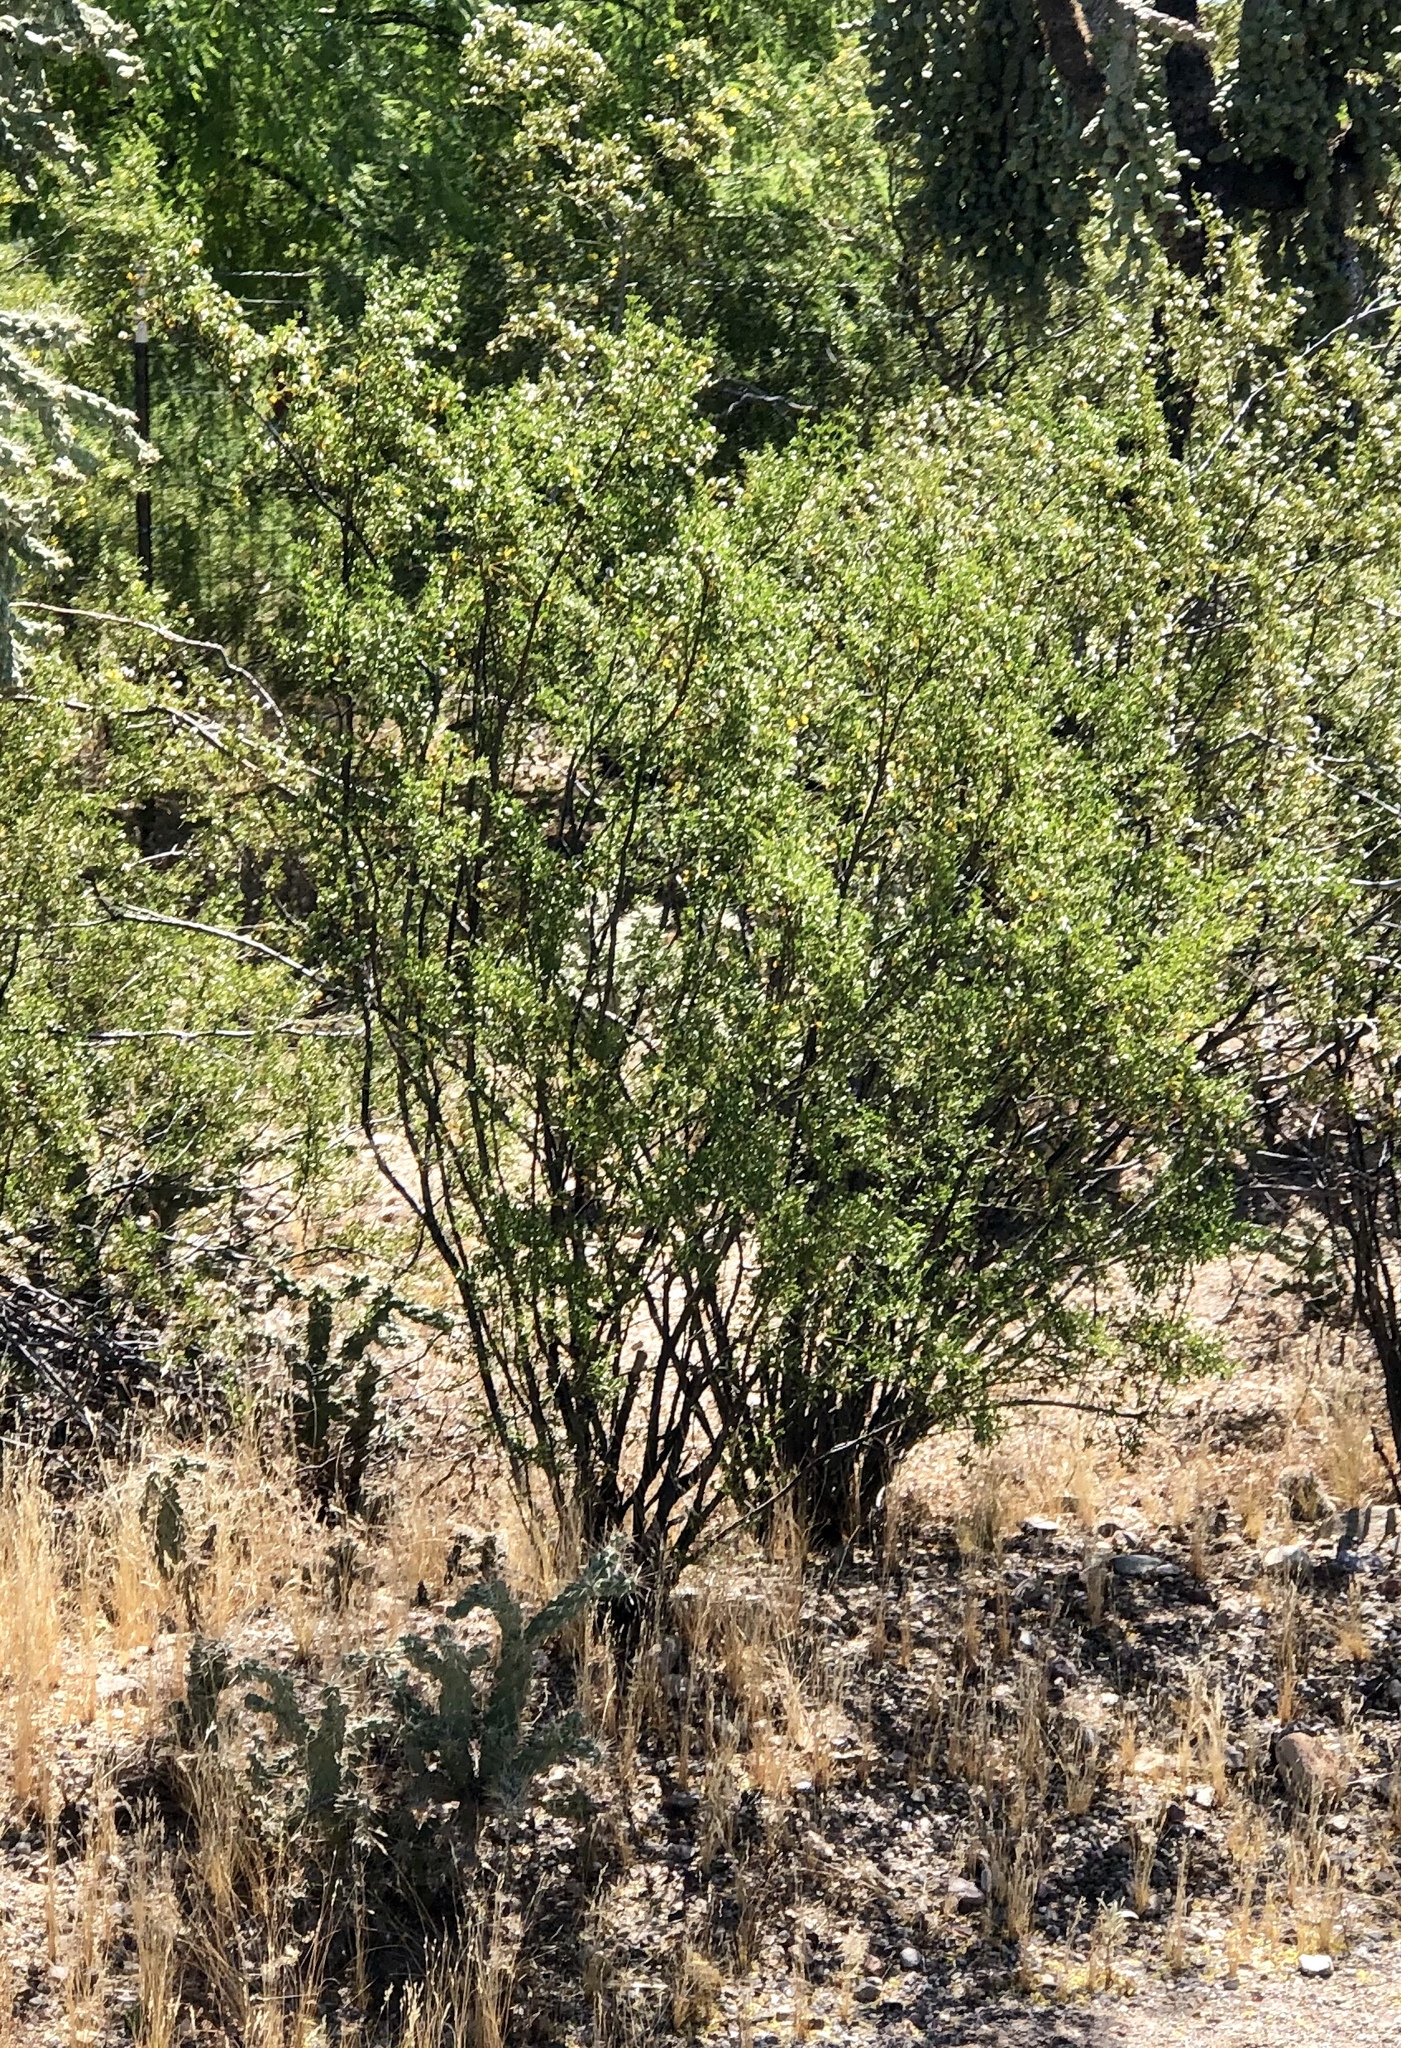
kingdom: Plantae
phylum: Tracheophyta
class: Magnoliopsida
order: Zygophyllales
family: Zygophyllaceae
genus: Larrea
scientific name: Larrea tridentata
